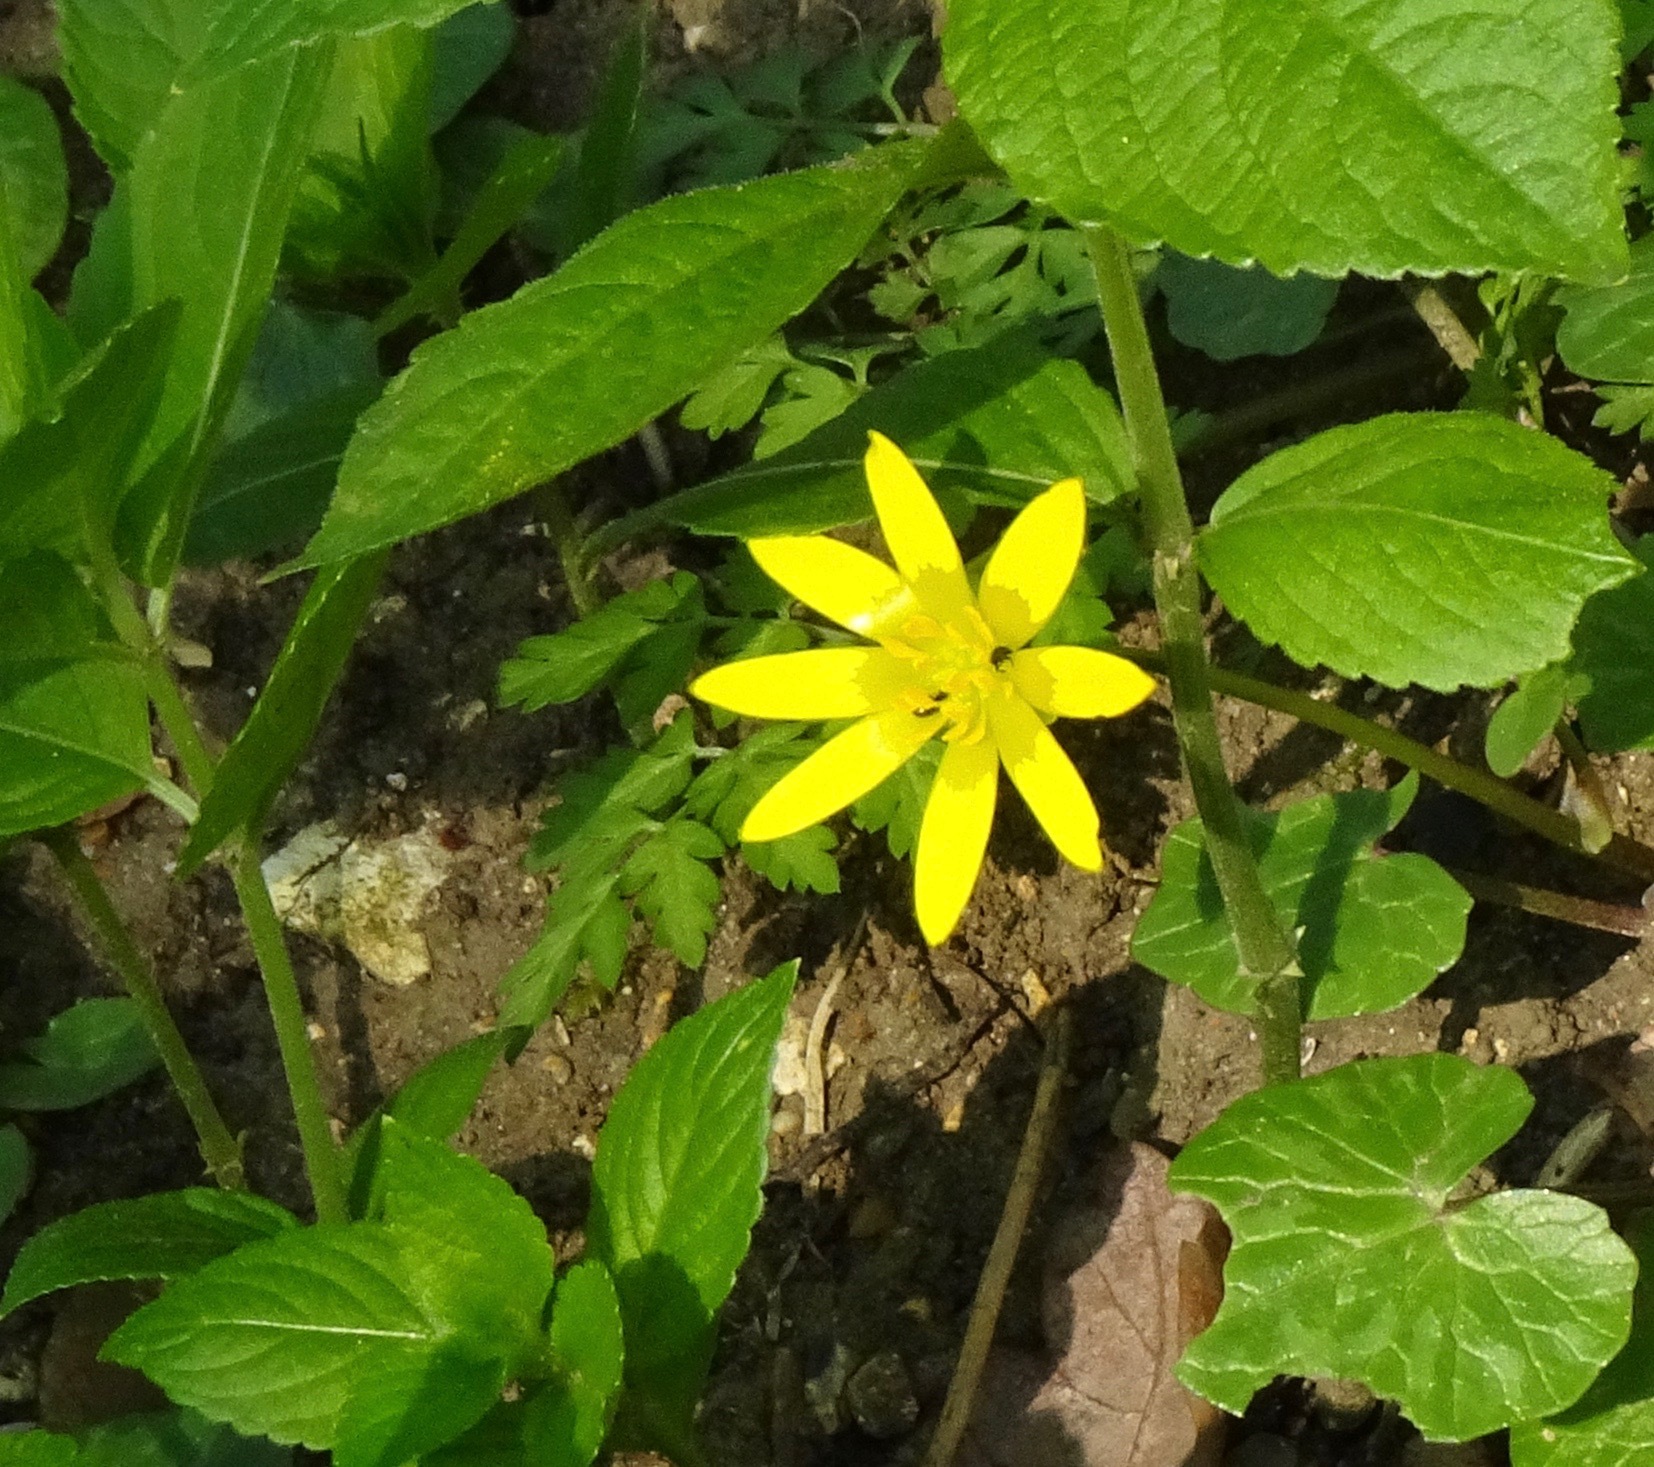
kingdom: Plantae
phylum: Tracheophyta
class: Magnoliopsida
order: Ranunculales
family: Ranunculaceae
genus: Ficaria
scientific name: Ficaria verna
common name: Lesser celandine
